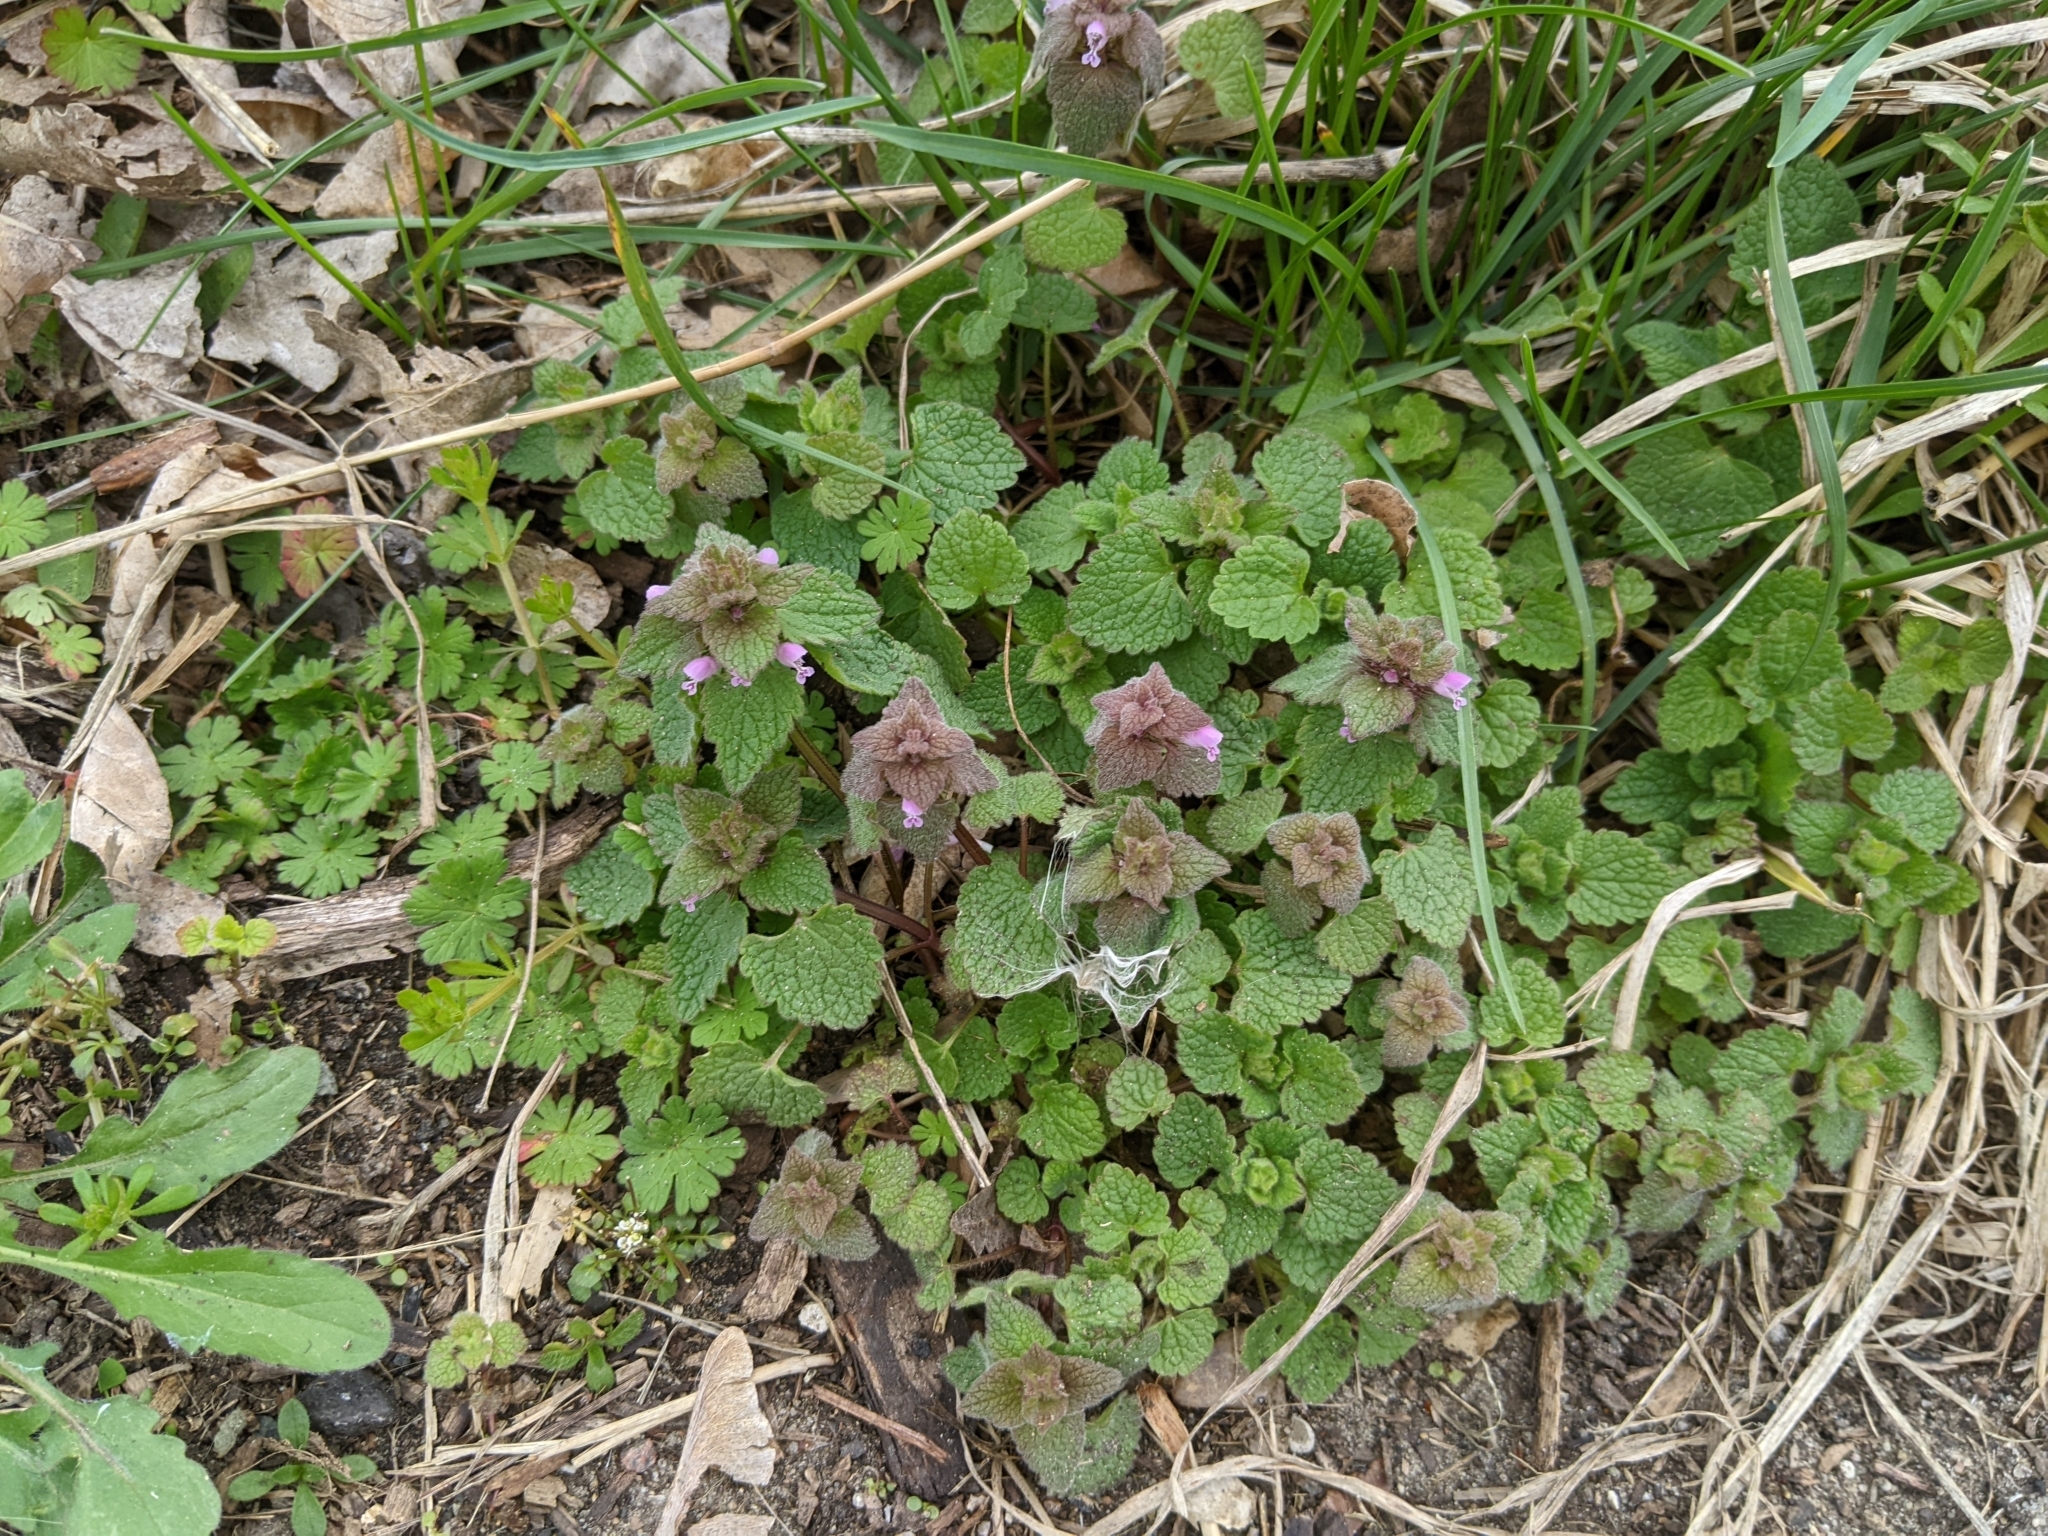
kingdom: Plantae
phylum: Tracheophyta
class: Magnoliopsida
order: Lamiales
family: Lamiaceae
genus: Lamium
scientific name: Lamium purpureum
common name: Red dead-nettle
